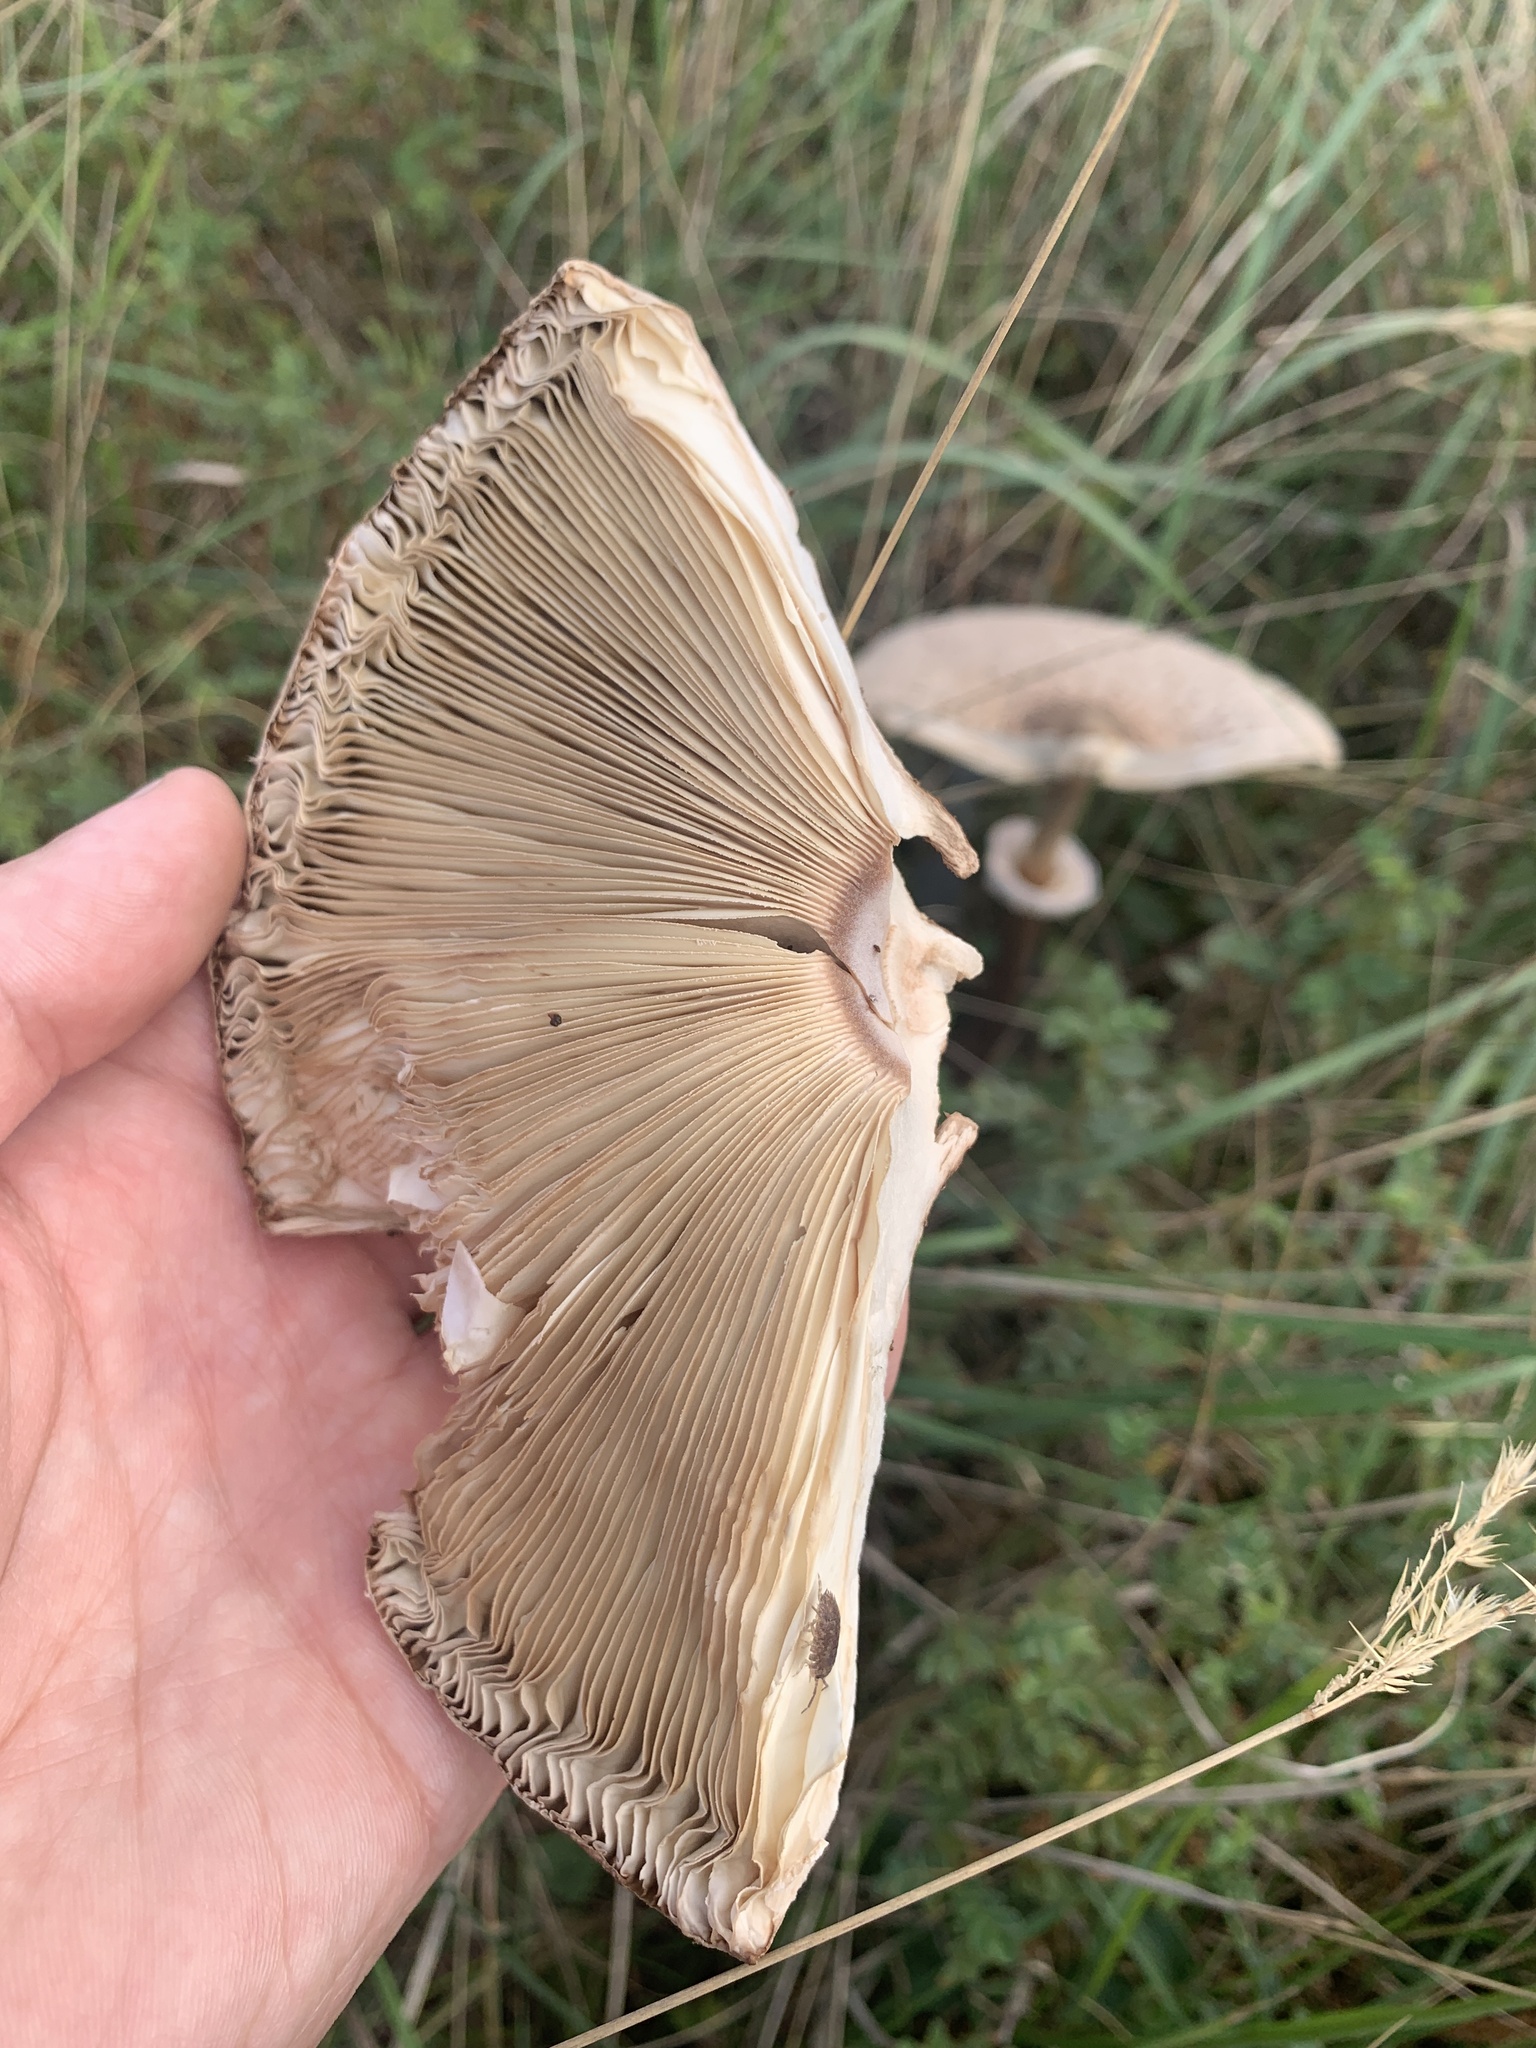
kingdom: Fungi
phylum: Basidiomycota
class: Agaricomycetes
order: Agaricales
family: Agaricaceae
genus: Macrolepiota
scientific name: Macrolepiota procera
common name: Parasol
